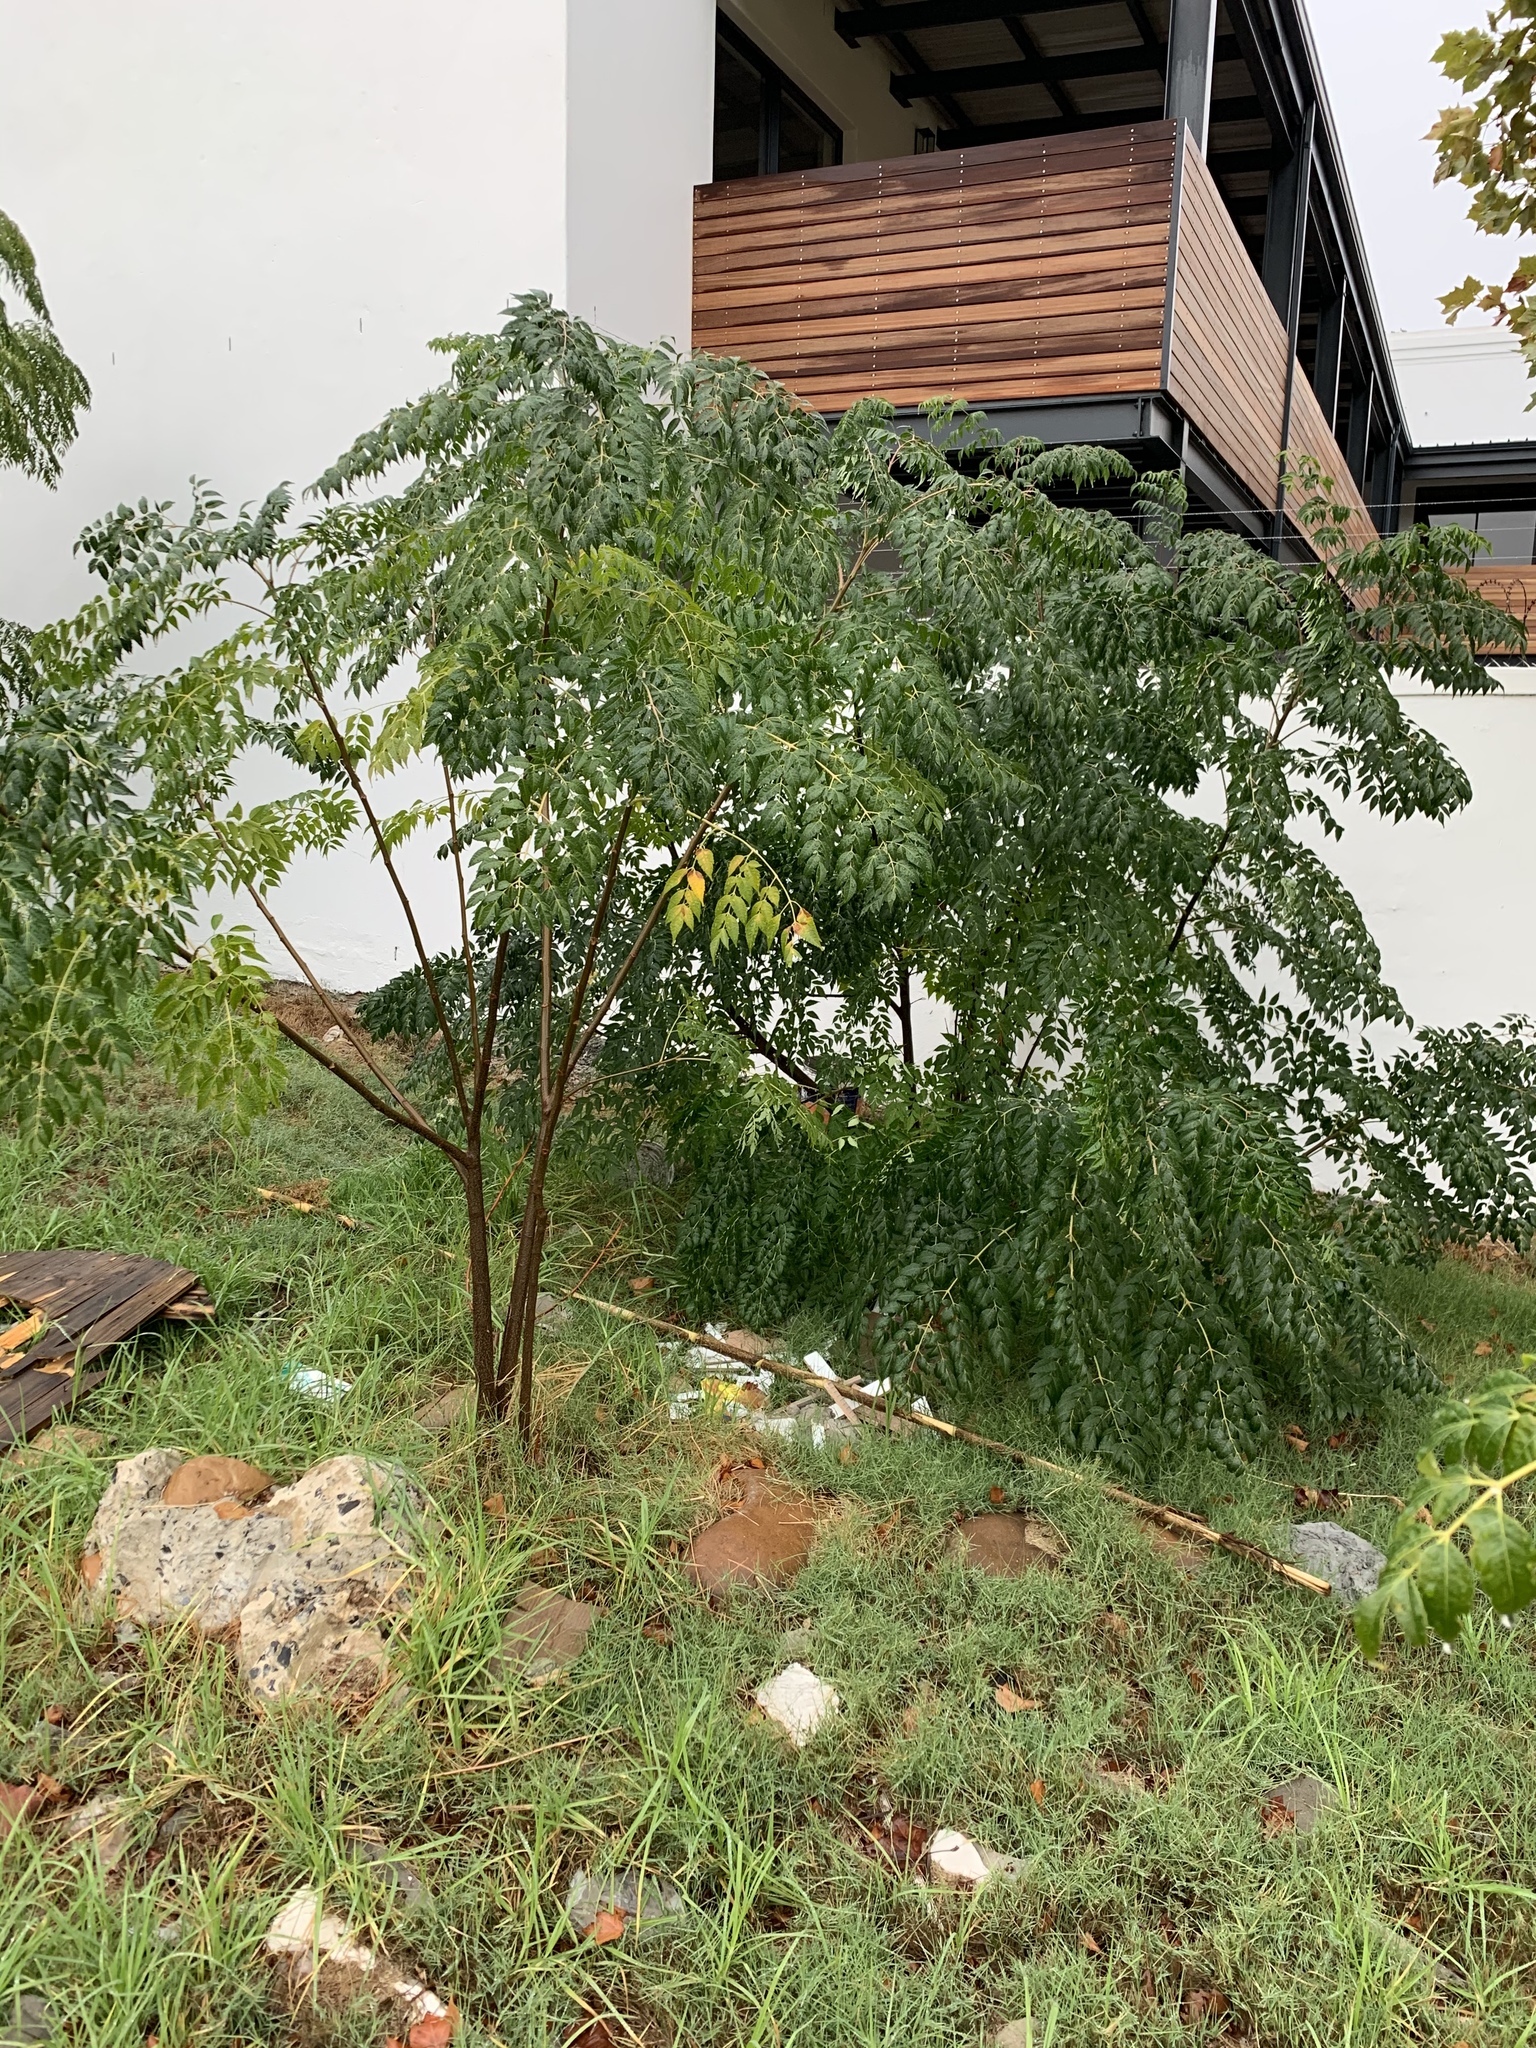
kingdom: Plantae
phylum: Tracheophyta
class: Magnoliopsida
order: Sapindales
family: Meliaceae
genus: Melia
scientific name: Melia azedarach
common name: Chinaberrytree
